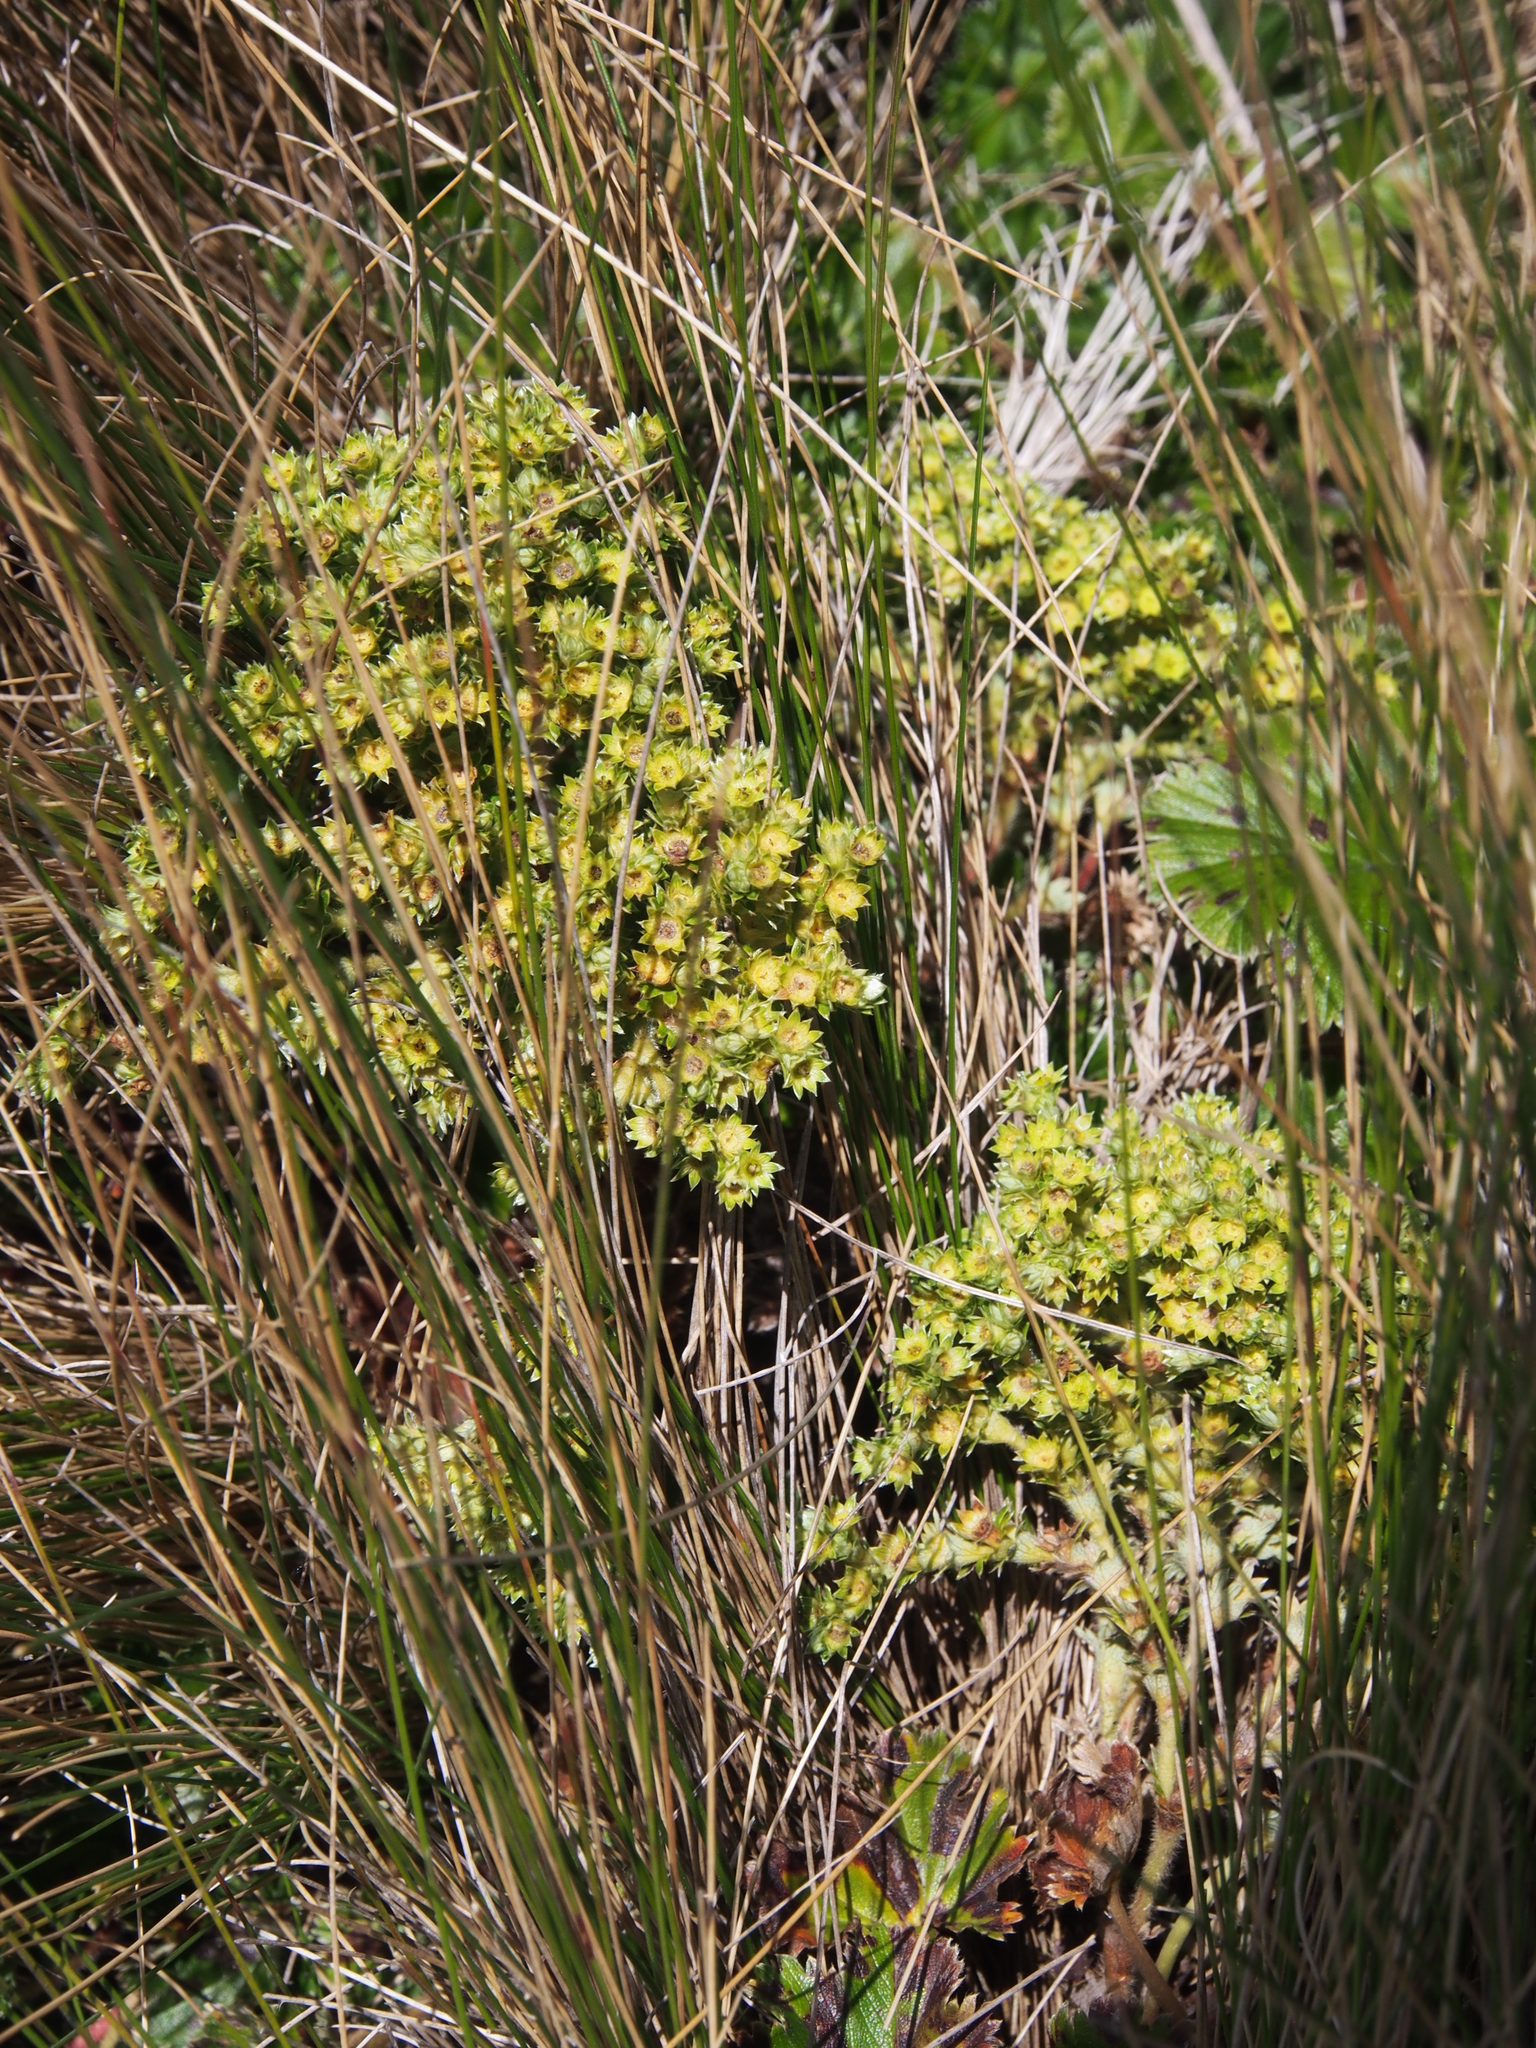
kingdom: Plantae
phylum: Tracheophyta
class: Magnoliopsida
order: Rosales
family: Rosaceae
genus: Lachemilla
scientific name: Lachemilla hispidula
